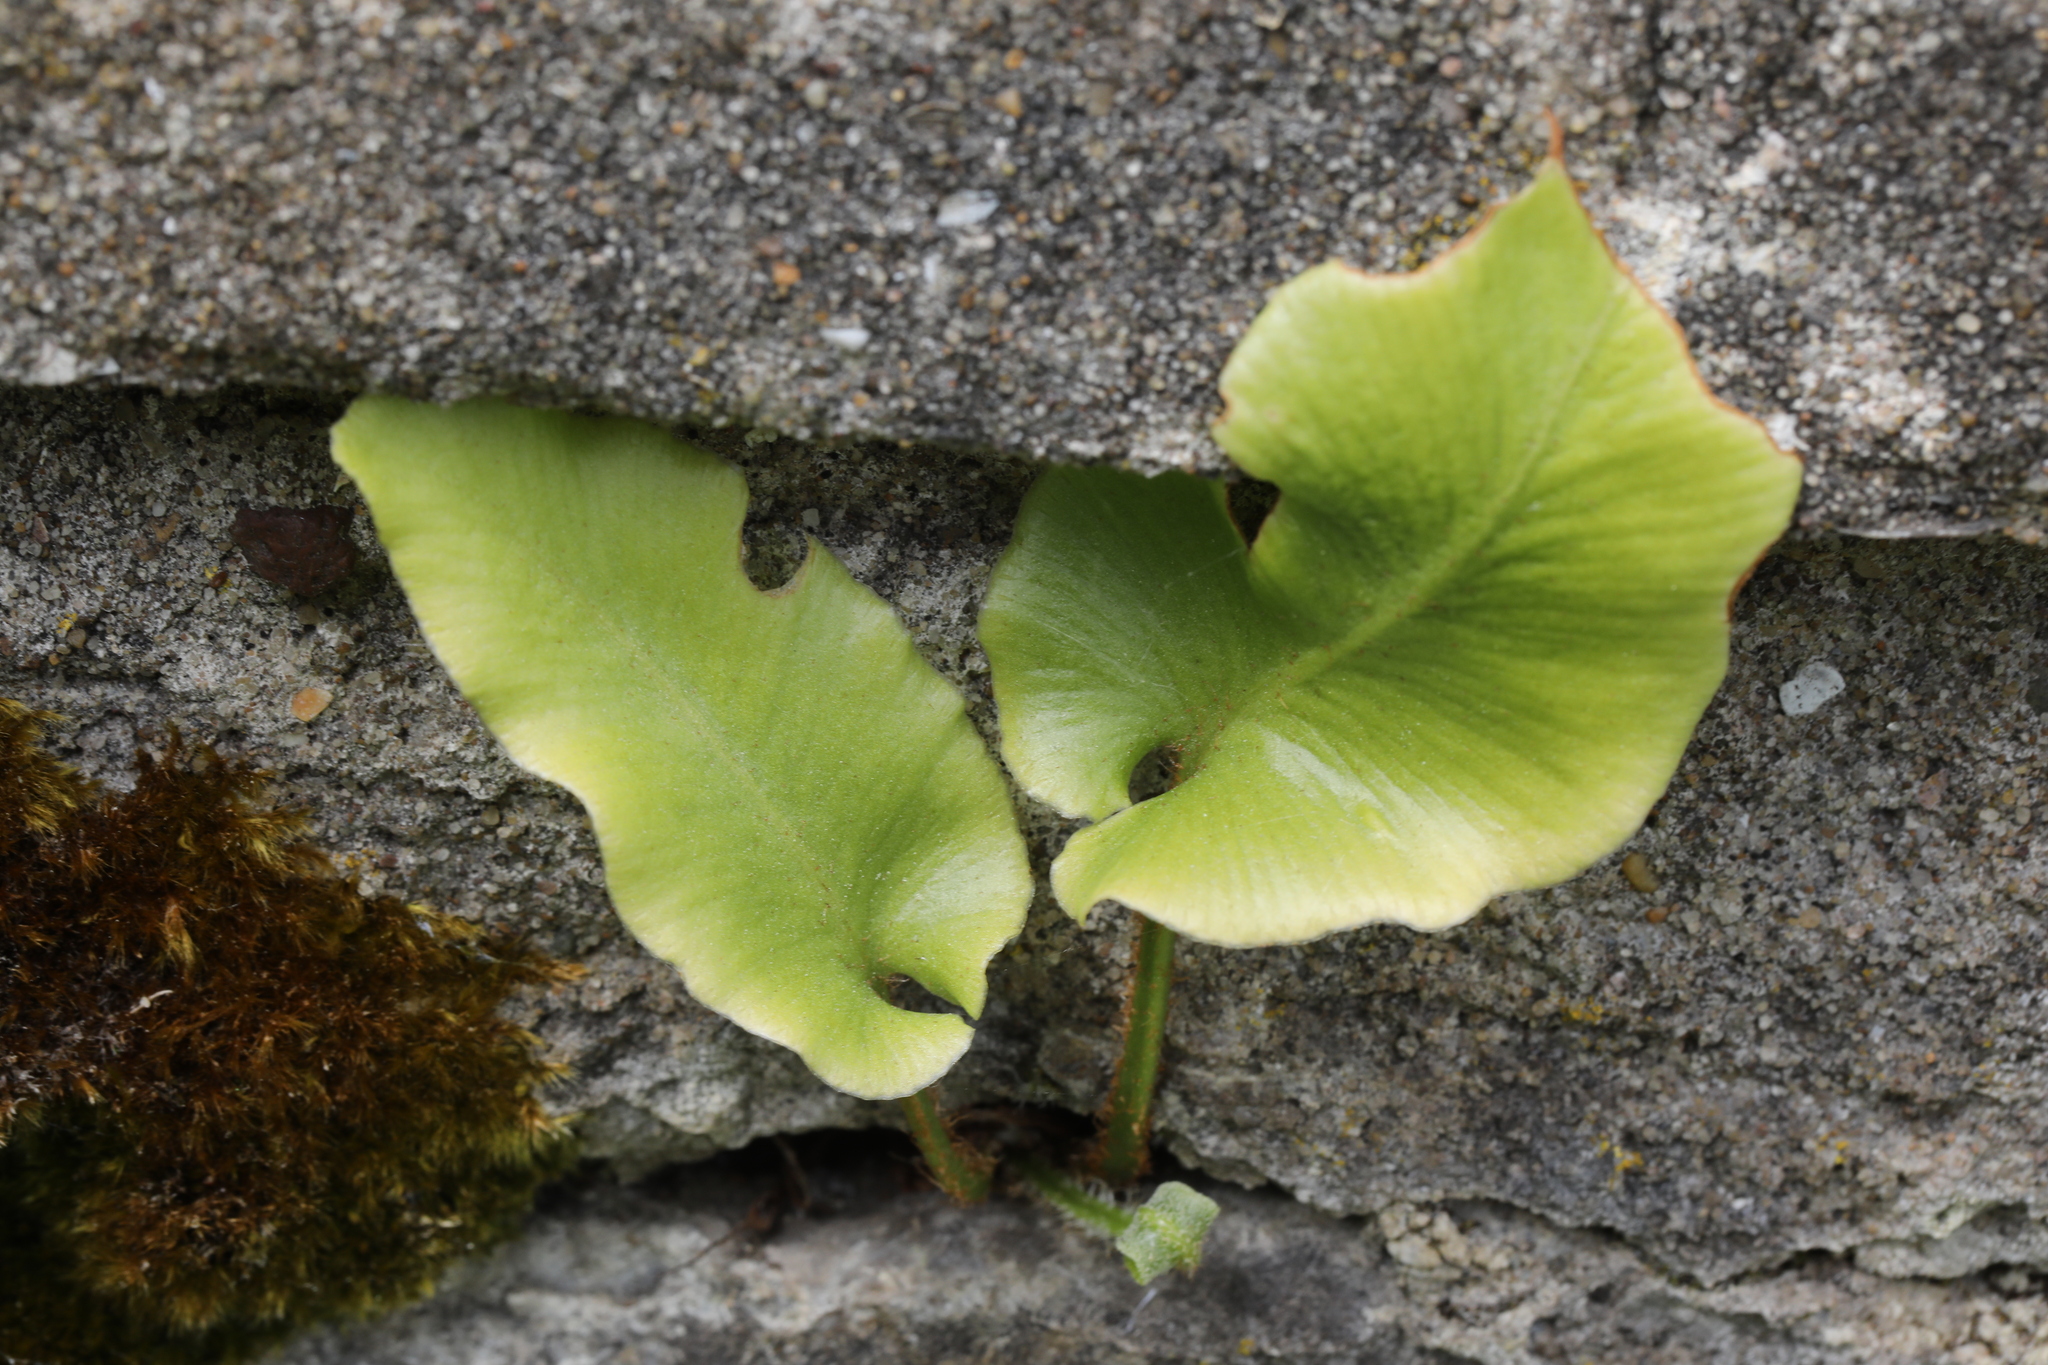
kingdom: Plantae
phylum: Tracheophyta
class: Polypodiopsida
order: Polypodiales
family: Aspleniaceae
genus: Asplenium
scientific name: Asplenium scolopendrium
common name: Hart's-tongue fern
